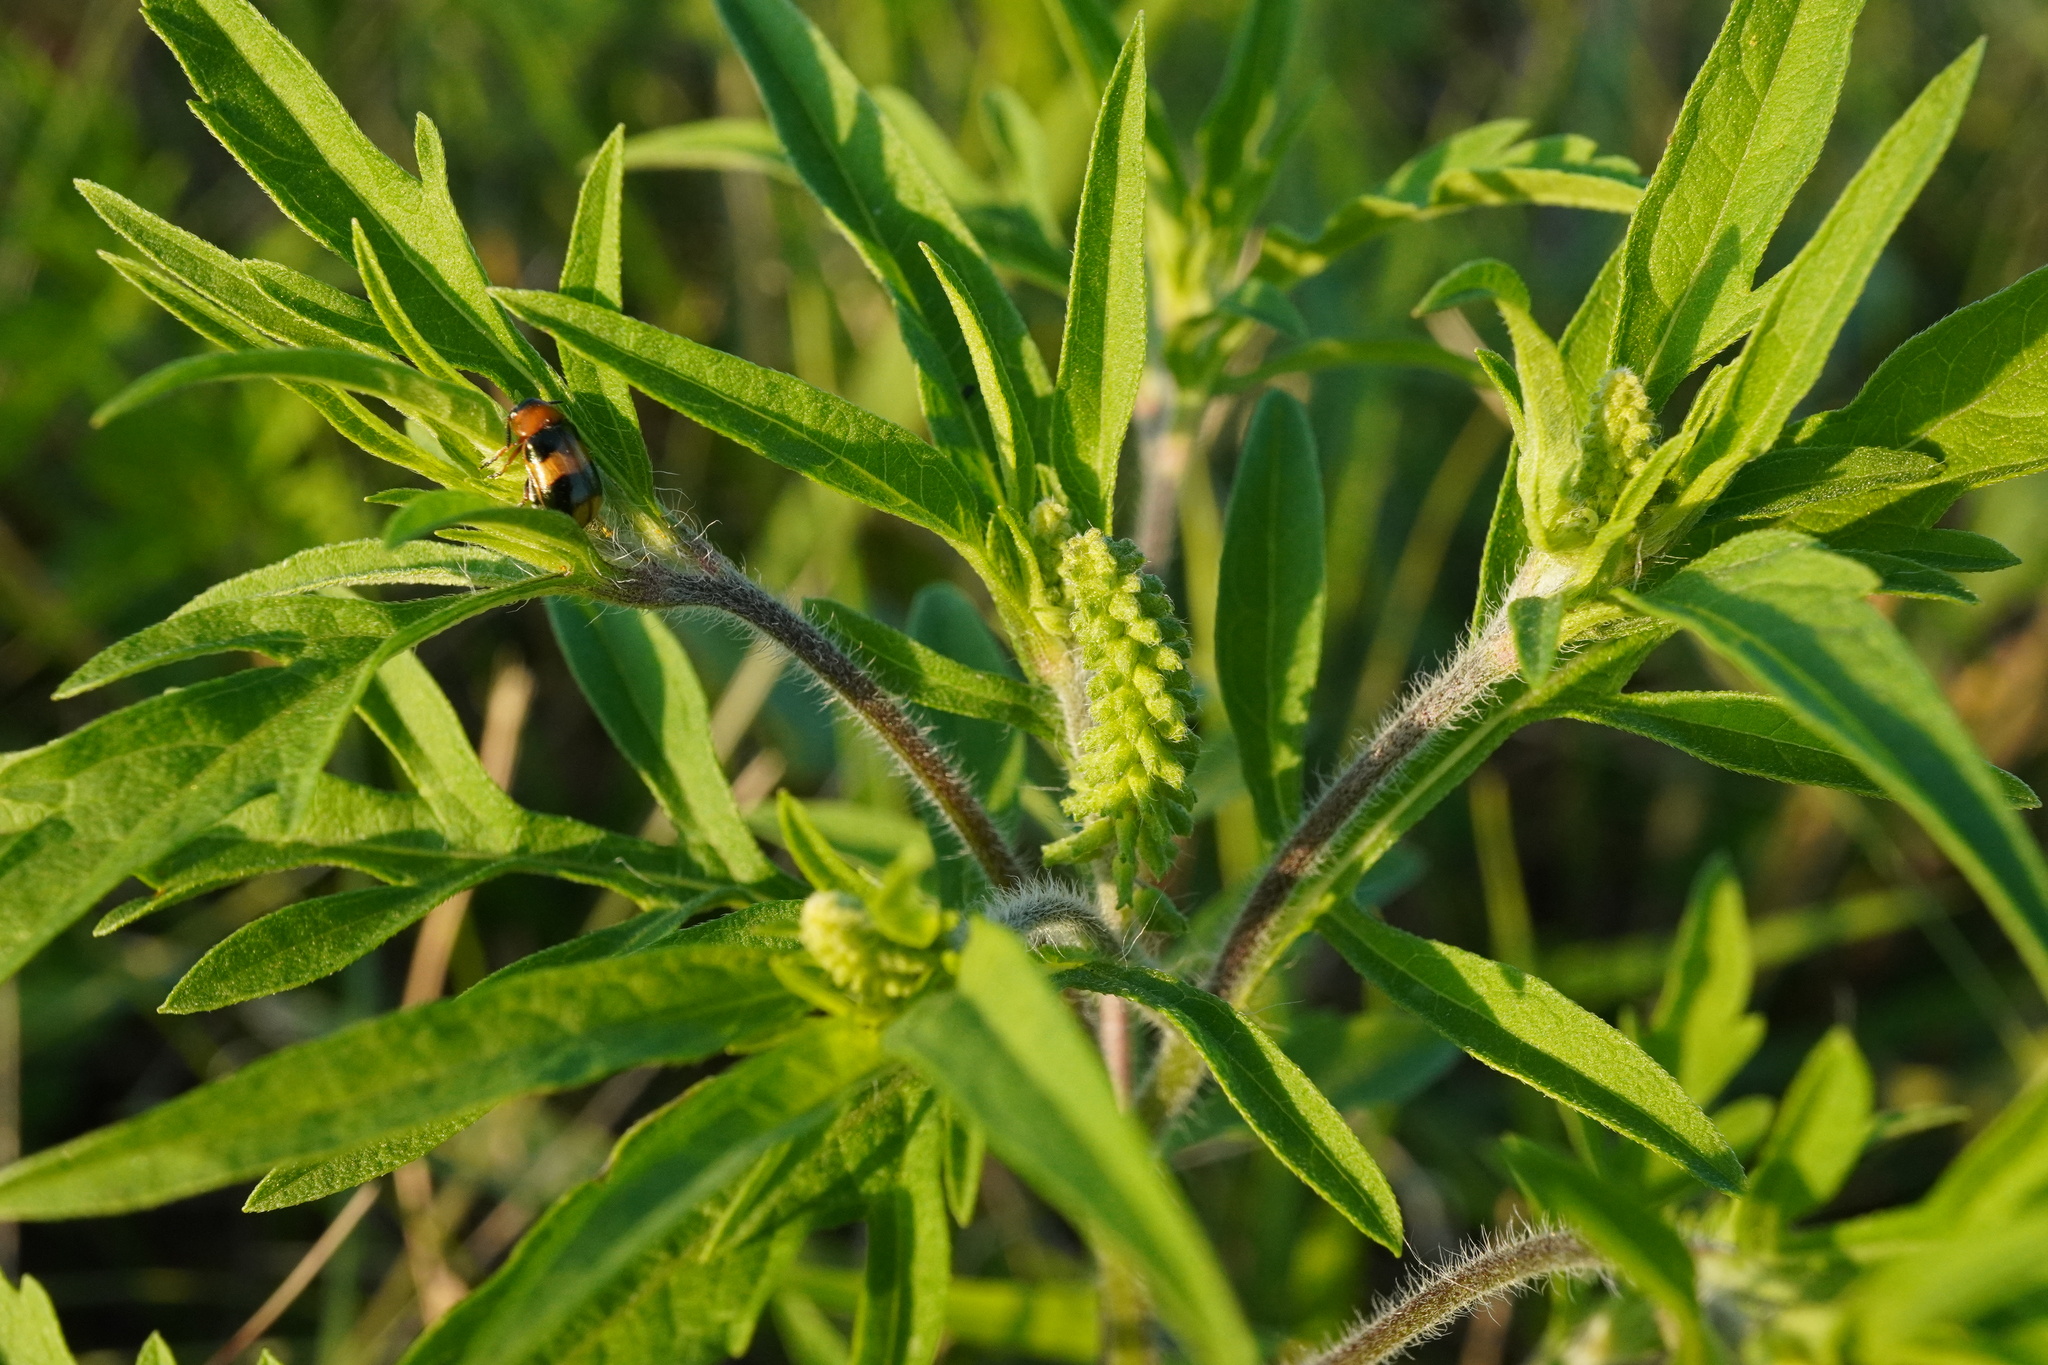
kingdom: Plantae
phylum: Tracheophyta
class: Magnoliopsida
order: Asterales
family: Asteraceae
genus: Ambrosia
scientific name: Ambrosia artemisiifolia
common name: Annual ragweed
